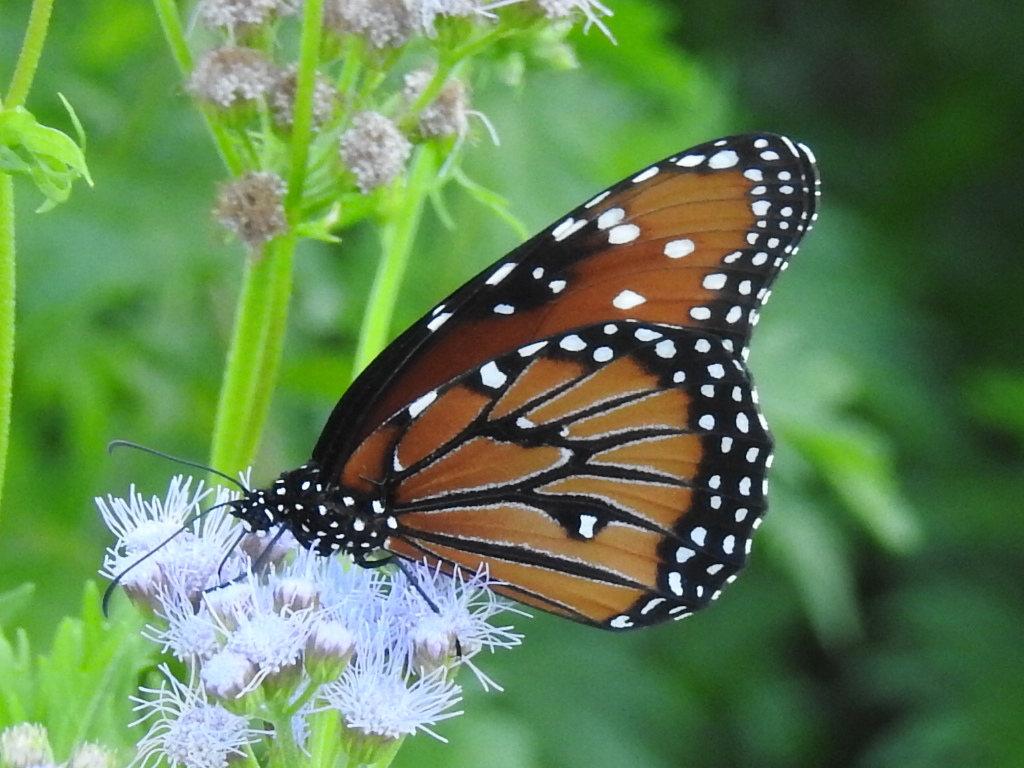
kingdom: Animalia
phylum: Arthropoda
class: Insecta
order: Lepidoptera
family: Nymphalidae
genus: Danaus
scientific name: Danaus gilippus
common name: Queen
